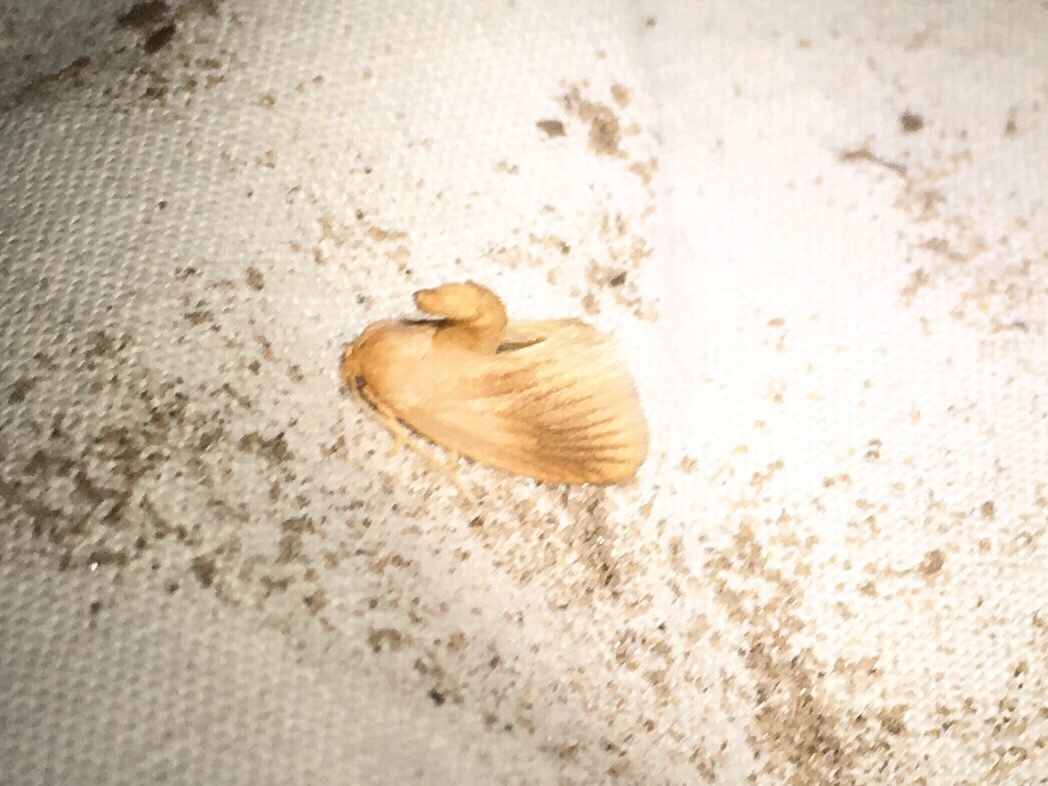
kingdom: Animalia
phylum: Arthropoda
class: Insecta
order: Lepidoptera
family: Limacodidae
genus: Tortricidia
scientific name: Tortricidia testacea
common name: Early button slug moth
